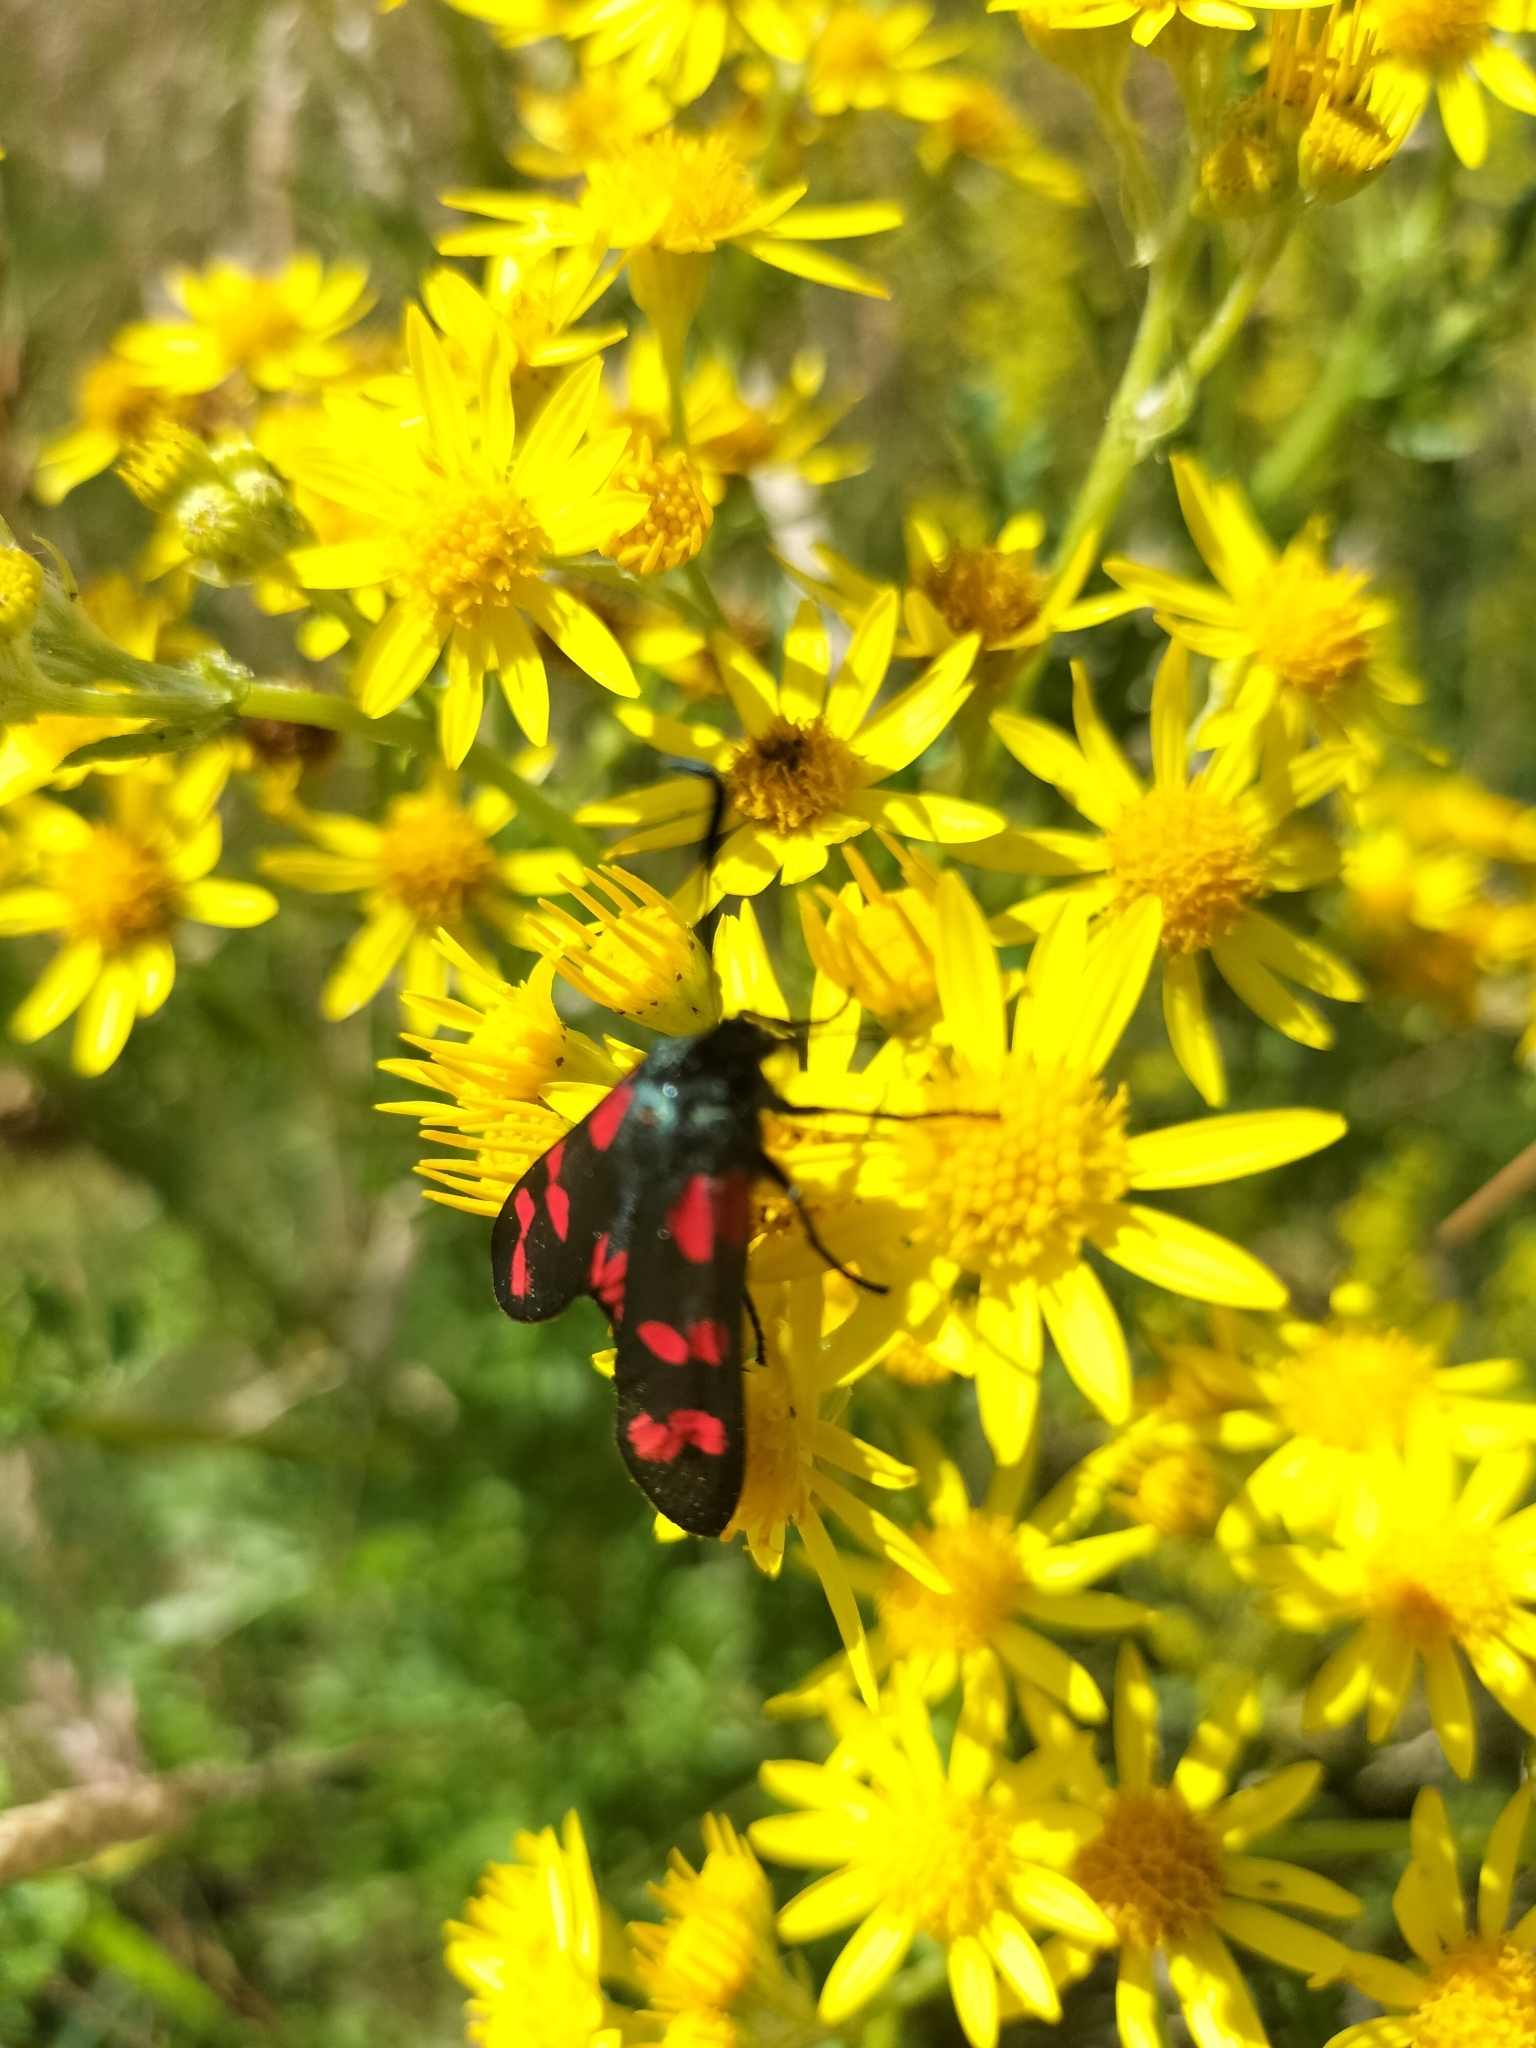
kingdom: Animalia
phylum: Arthropoda
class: Insecta
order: Lepidoptera
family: Zygaenidae
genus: Zygaena
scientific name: Zygaena filipendulae
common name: Six-spot burnet
